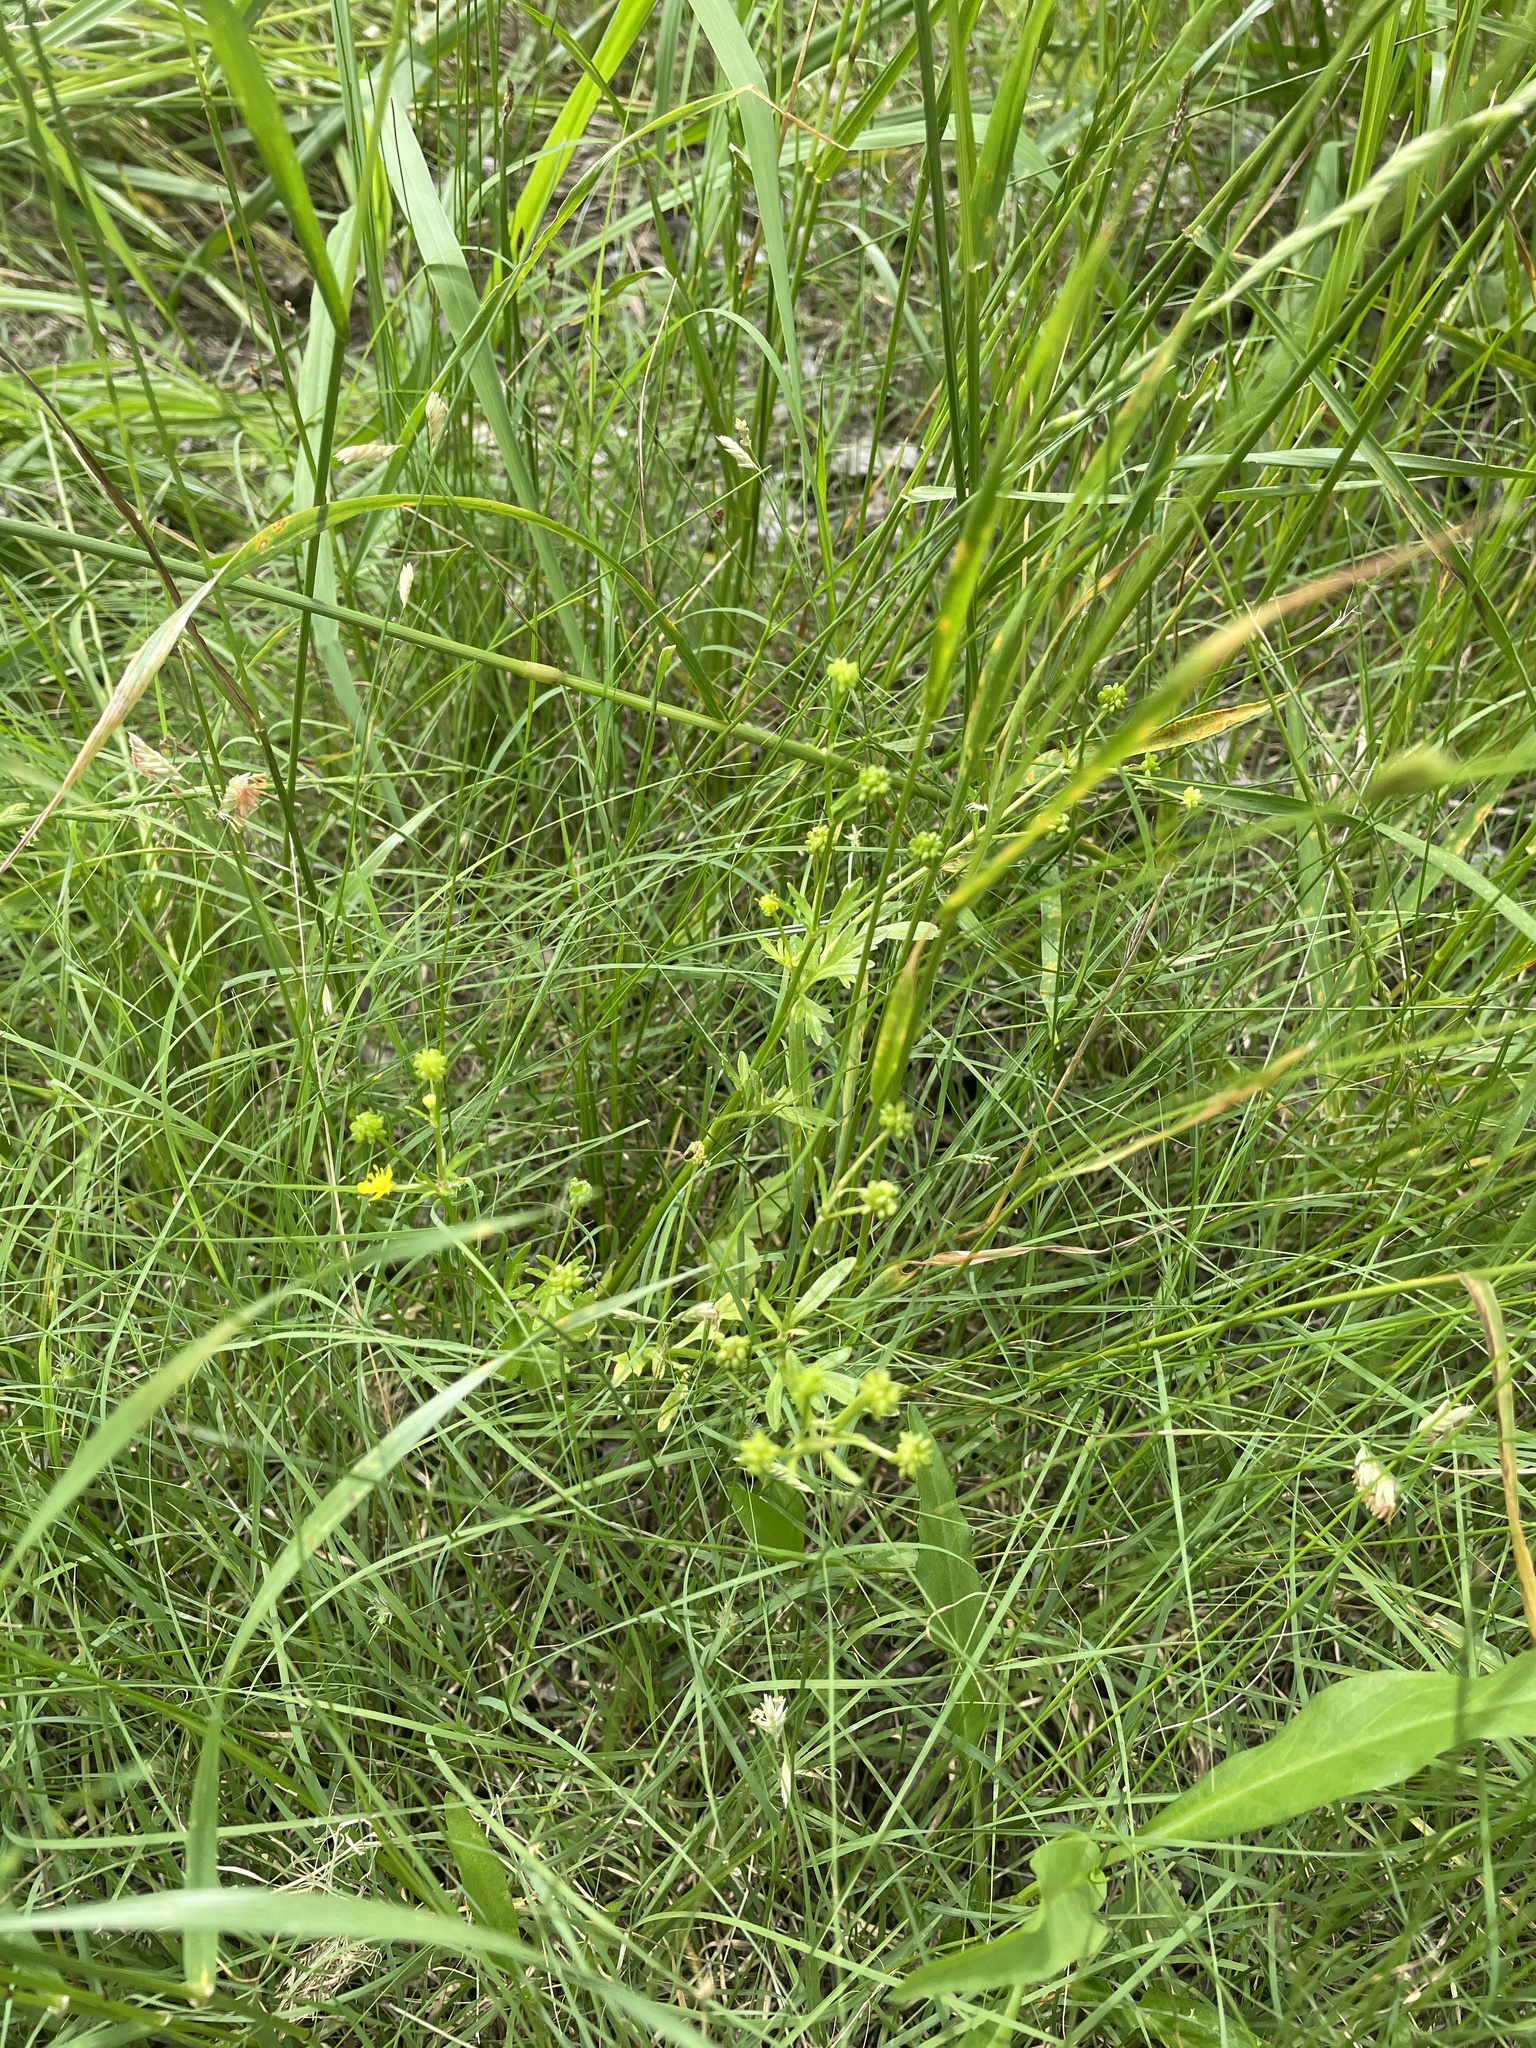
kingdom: Plantae
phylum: Tracheophyta
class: Magnoliopsida
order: Ranunculales
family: Ranunculaceae
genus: Ranunculus
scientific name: Ranunculus sardous
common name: Hairy buttercup
